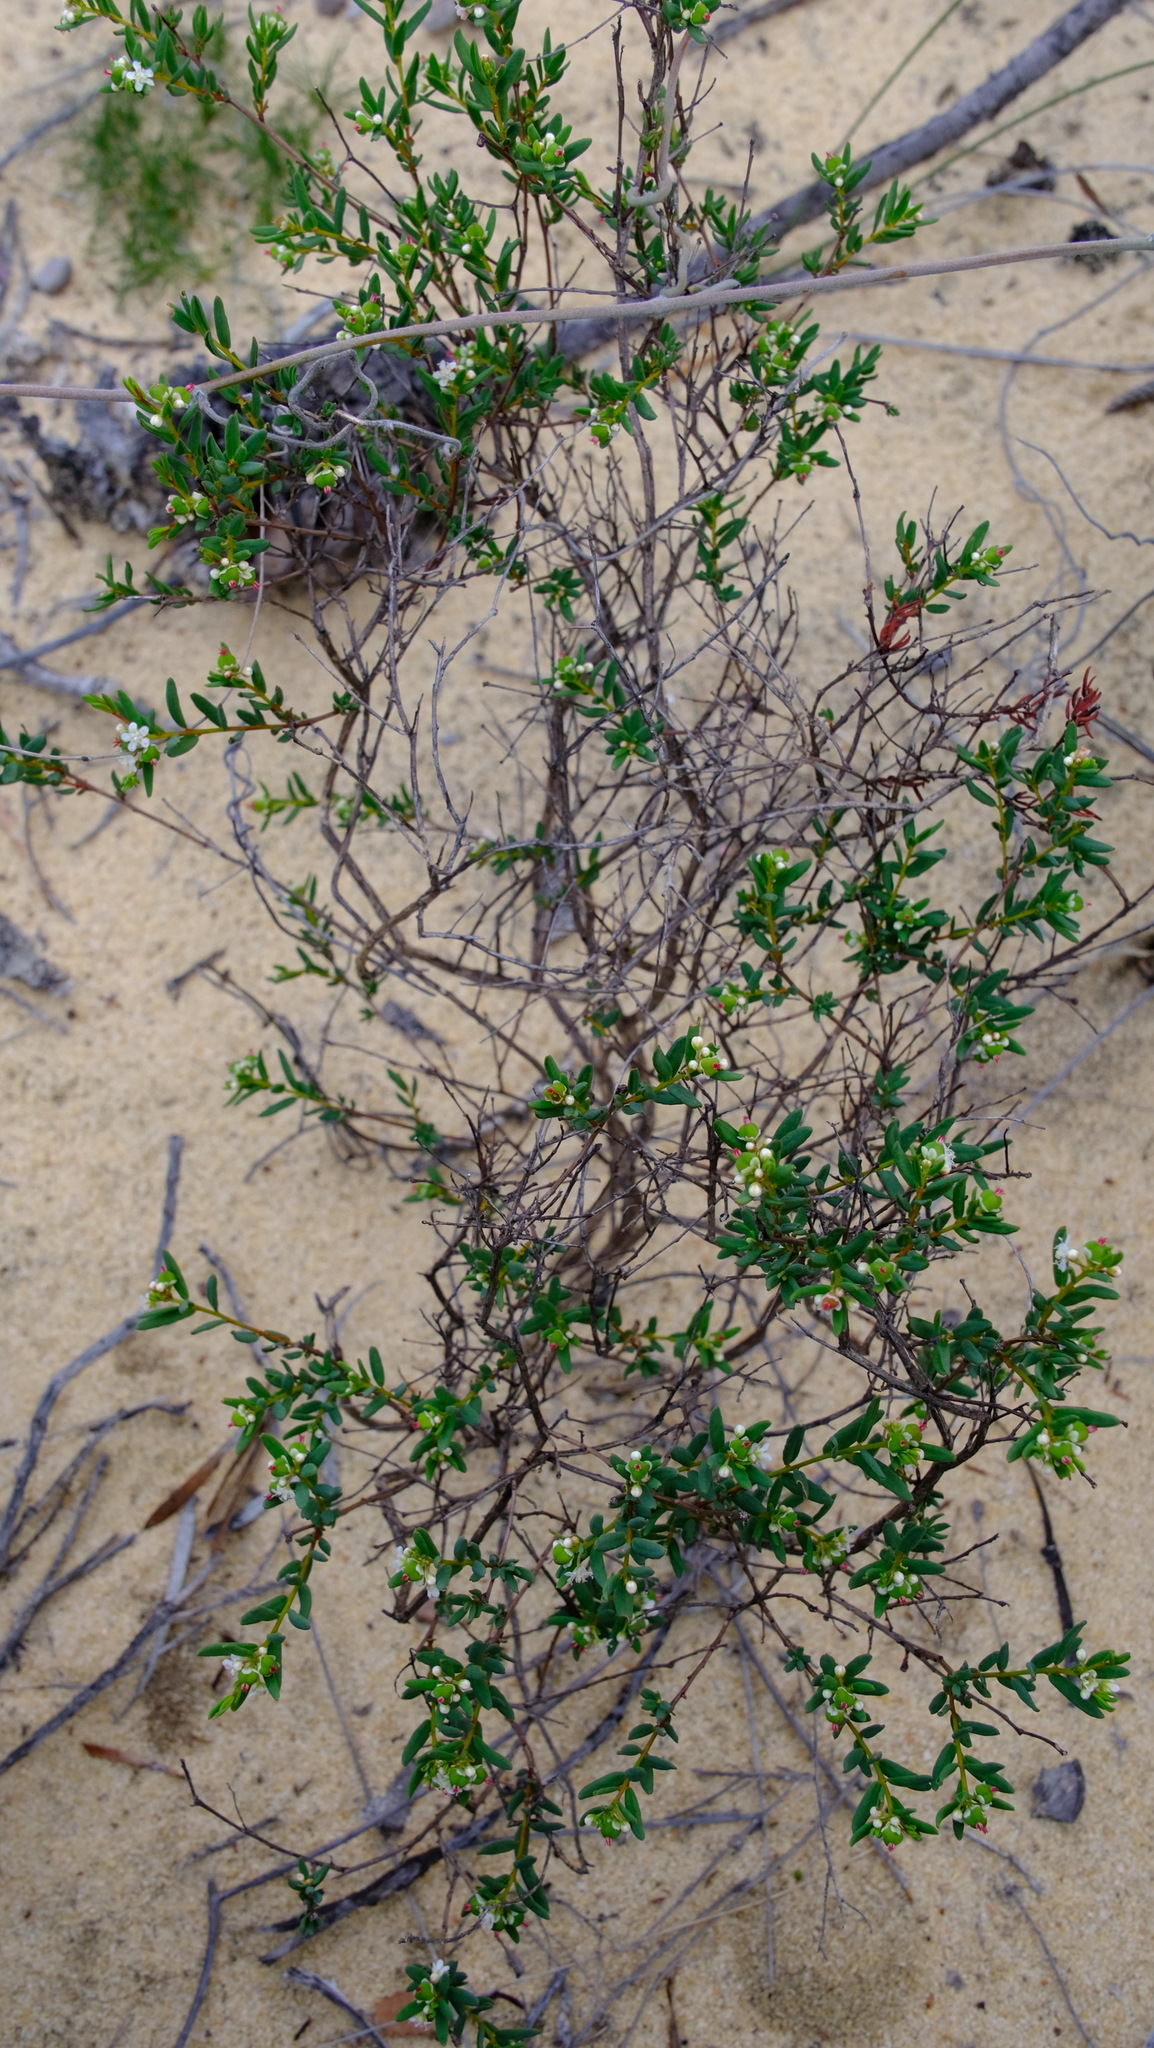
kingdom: Plantae
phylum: Tracheophyta
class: Magnoliopsida
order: Malpighiales
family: Euphorbiaceae
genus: Monotaxis
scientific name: Monotaxis bracteata
